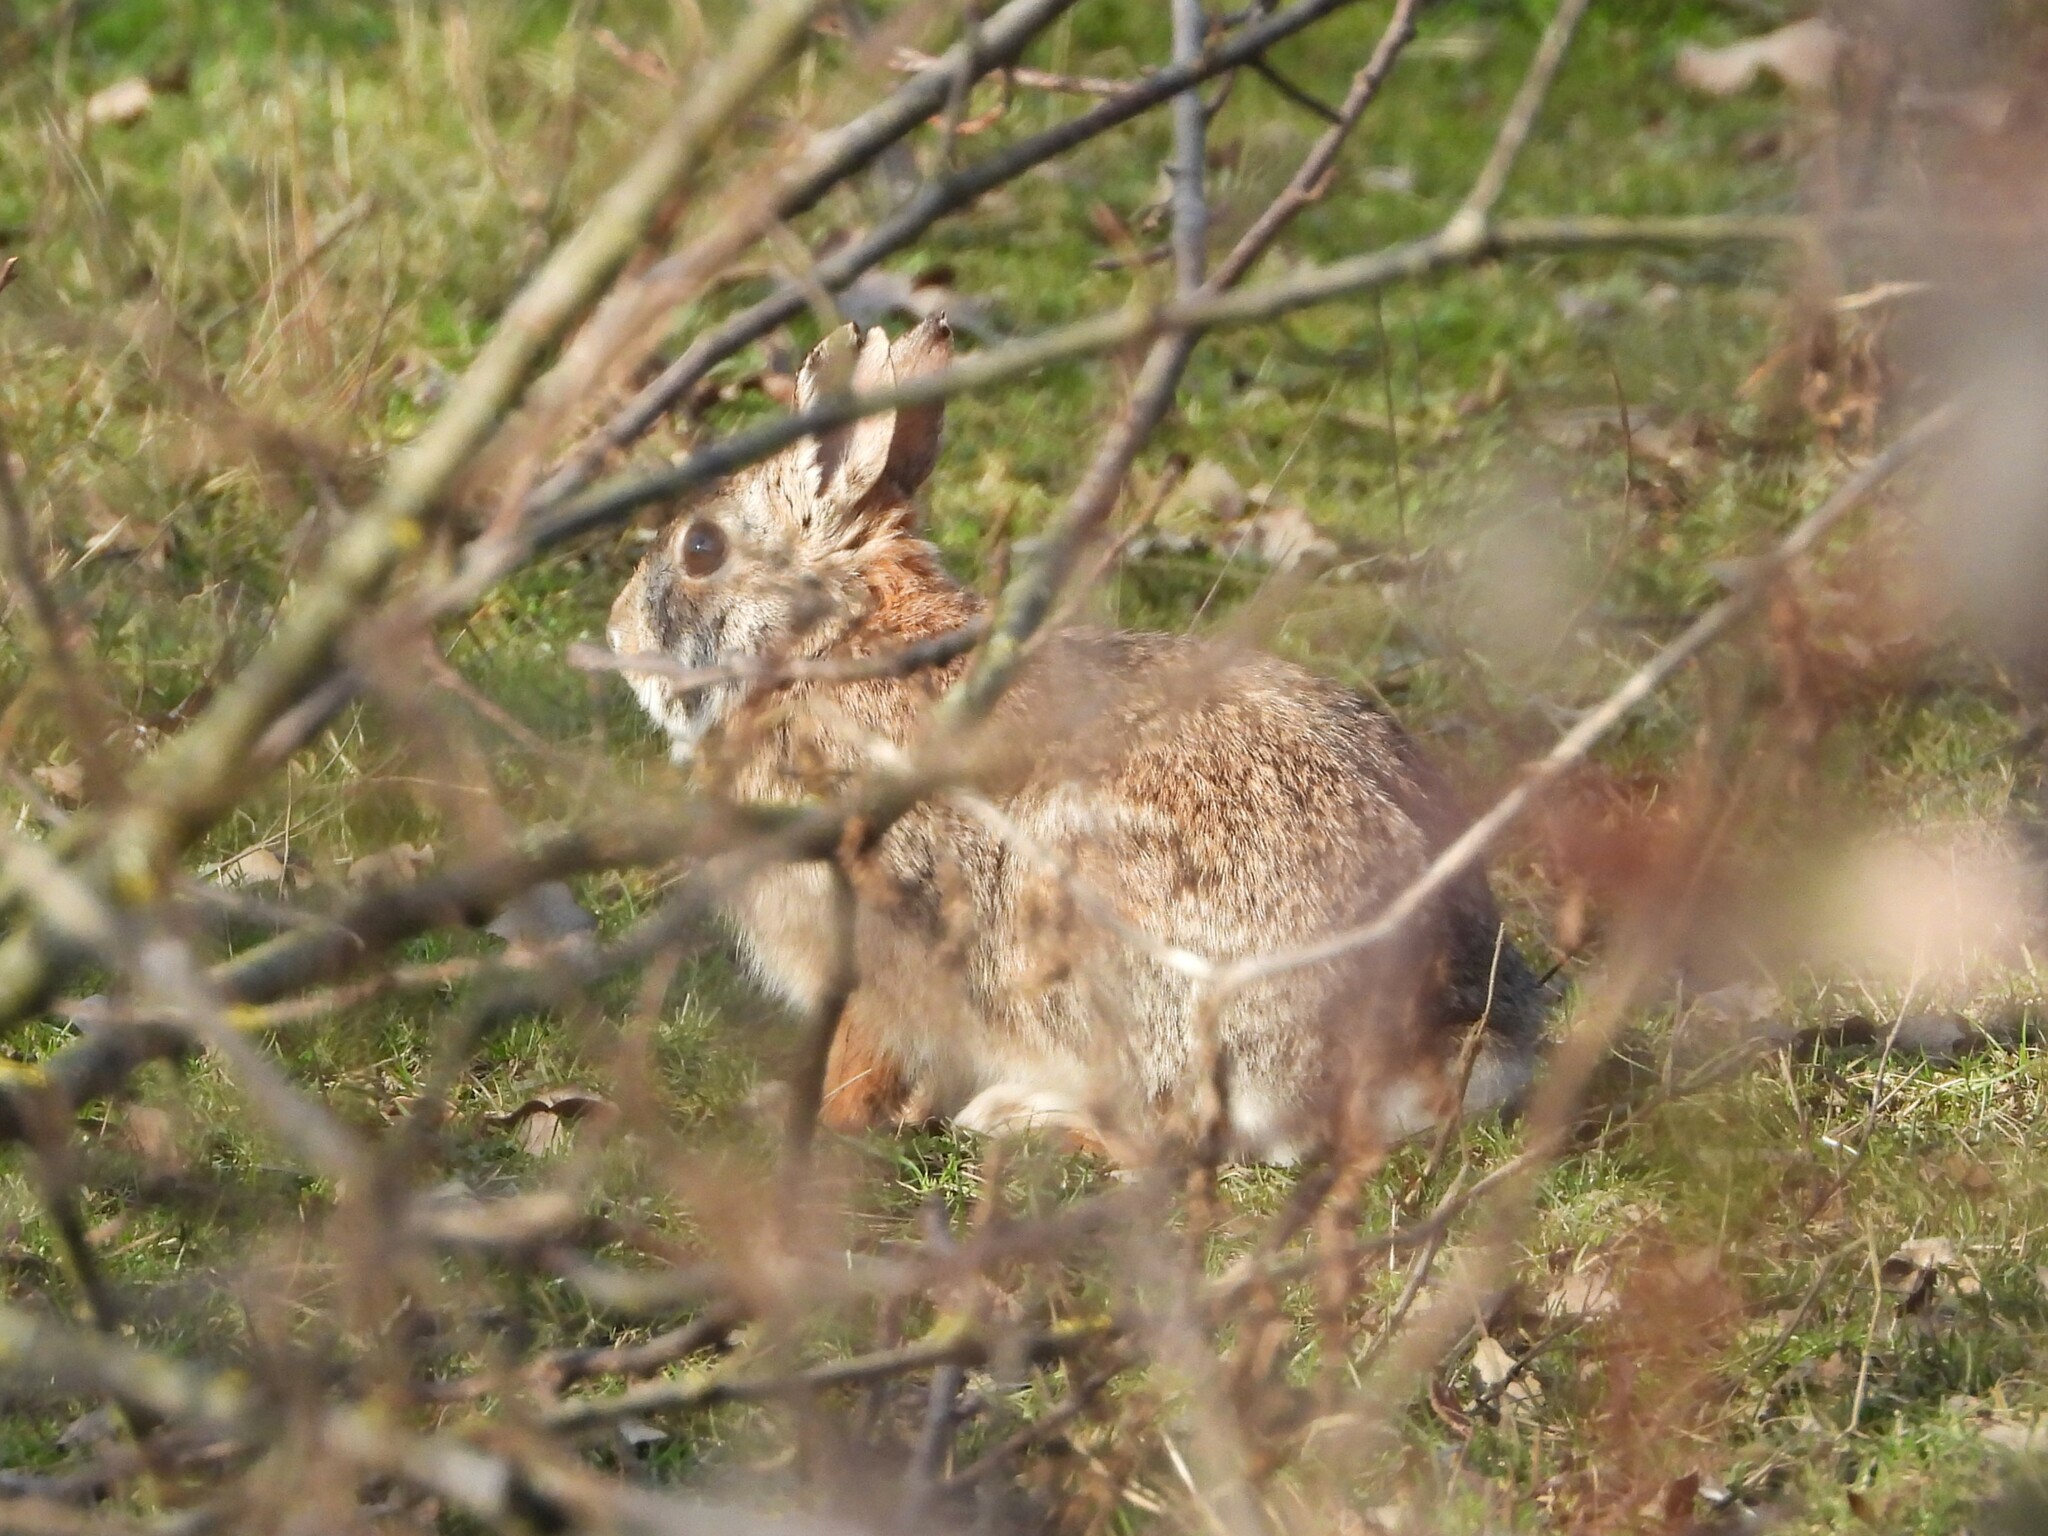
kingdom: Animalia
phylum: Chordata
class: Mammalia
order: Lagomorpha
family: Leporidae
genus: Sylvilagus
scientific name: Sylvilagus floridanus
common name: Eastern cottontail
